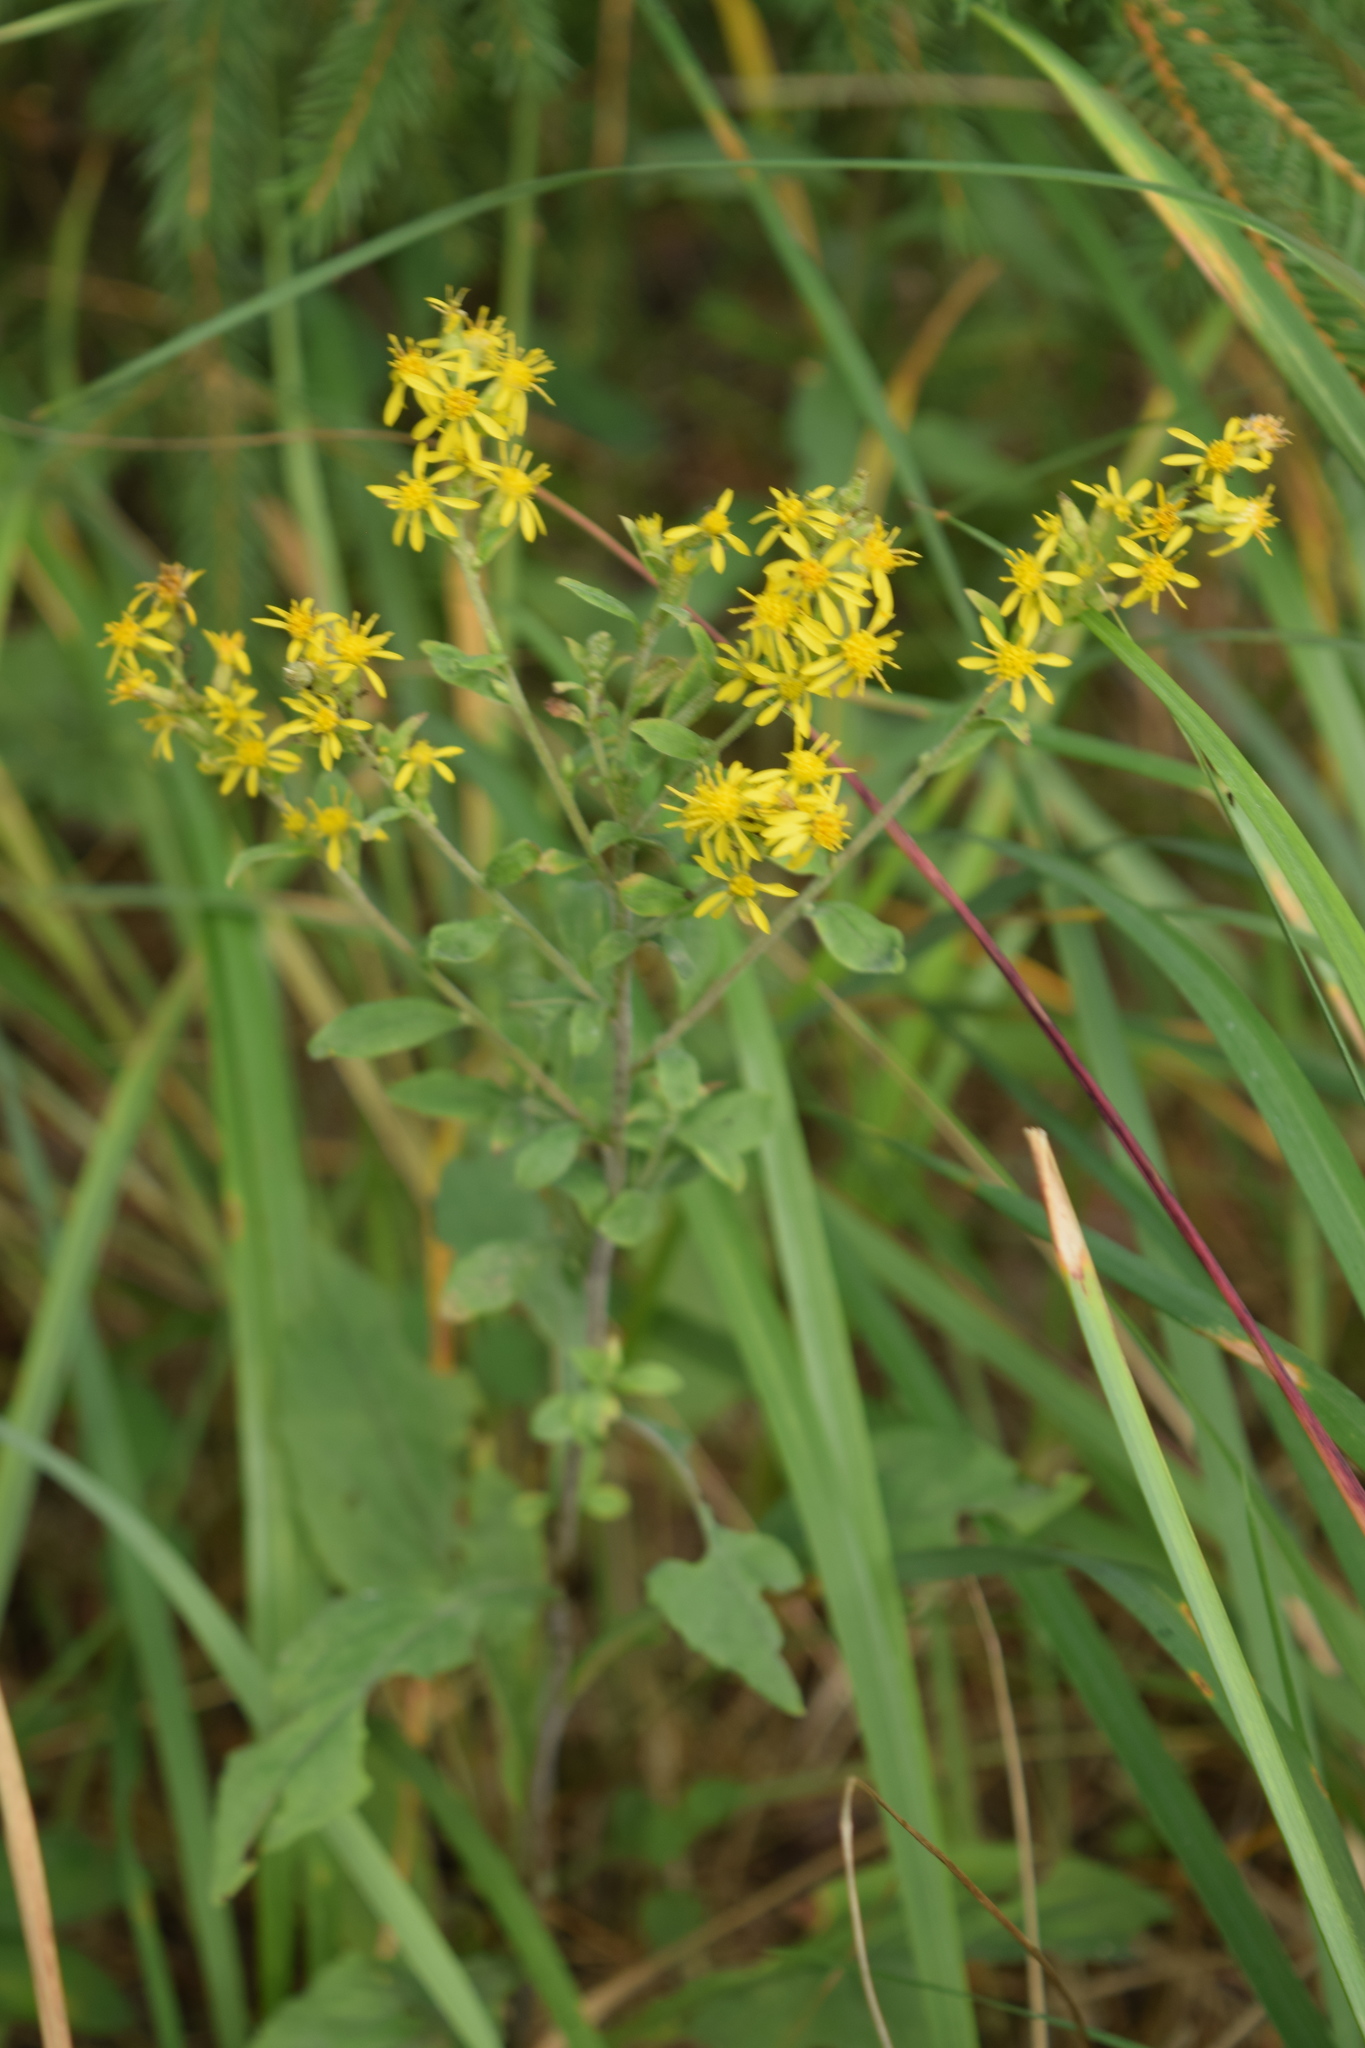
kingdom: Plantae
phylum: Tracheophyta
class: Magnoliopsida
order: Asterales
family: Asteraceae
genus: Solidago
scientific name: Solidago virgaurea
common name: Goldenrod
